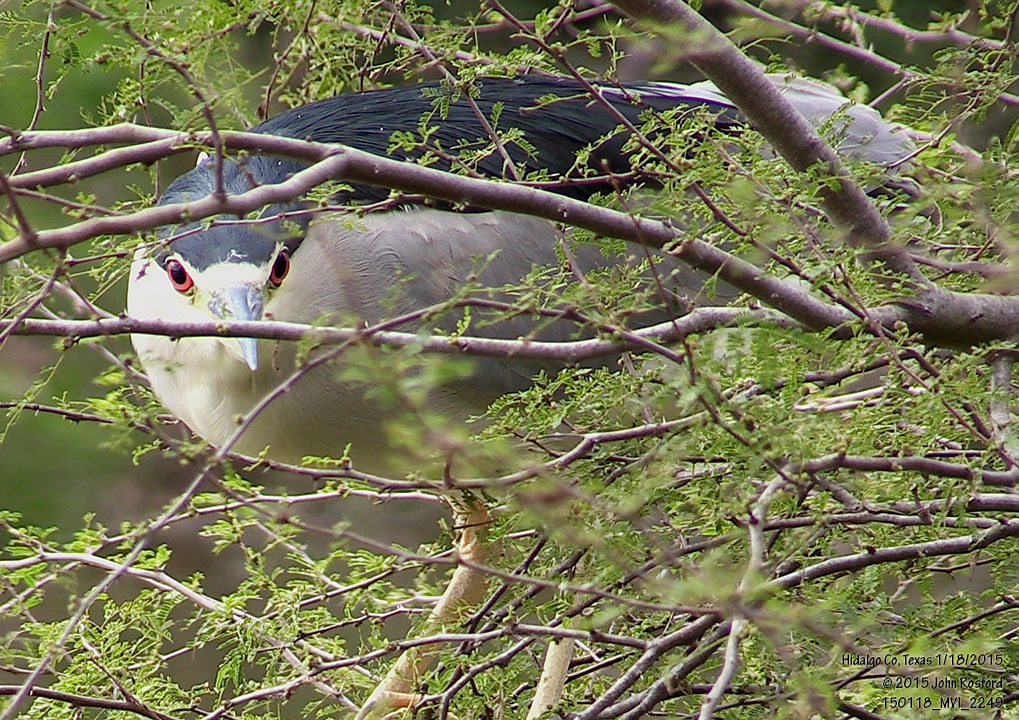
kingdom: Animalia
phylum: Chordata
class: Aves
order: Pelecaniformes
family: Ardeidae
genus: Nycticorax
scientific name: Nycticorax nycticorax
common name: Black-crowned night heron
